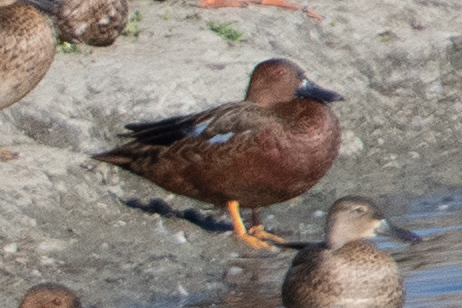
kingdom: Animalia
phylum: Chordata
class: Aves
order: Anseriformes
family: Anatidae
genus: Spatula
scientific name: Spatula cyanoptera
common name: Cinnamon teal
